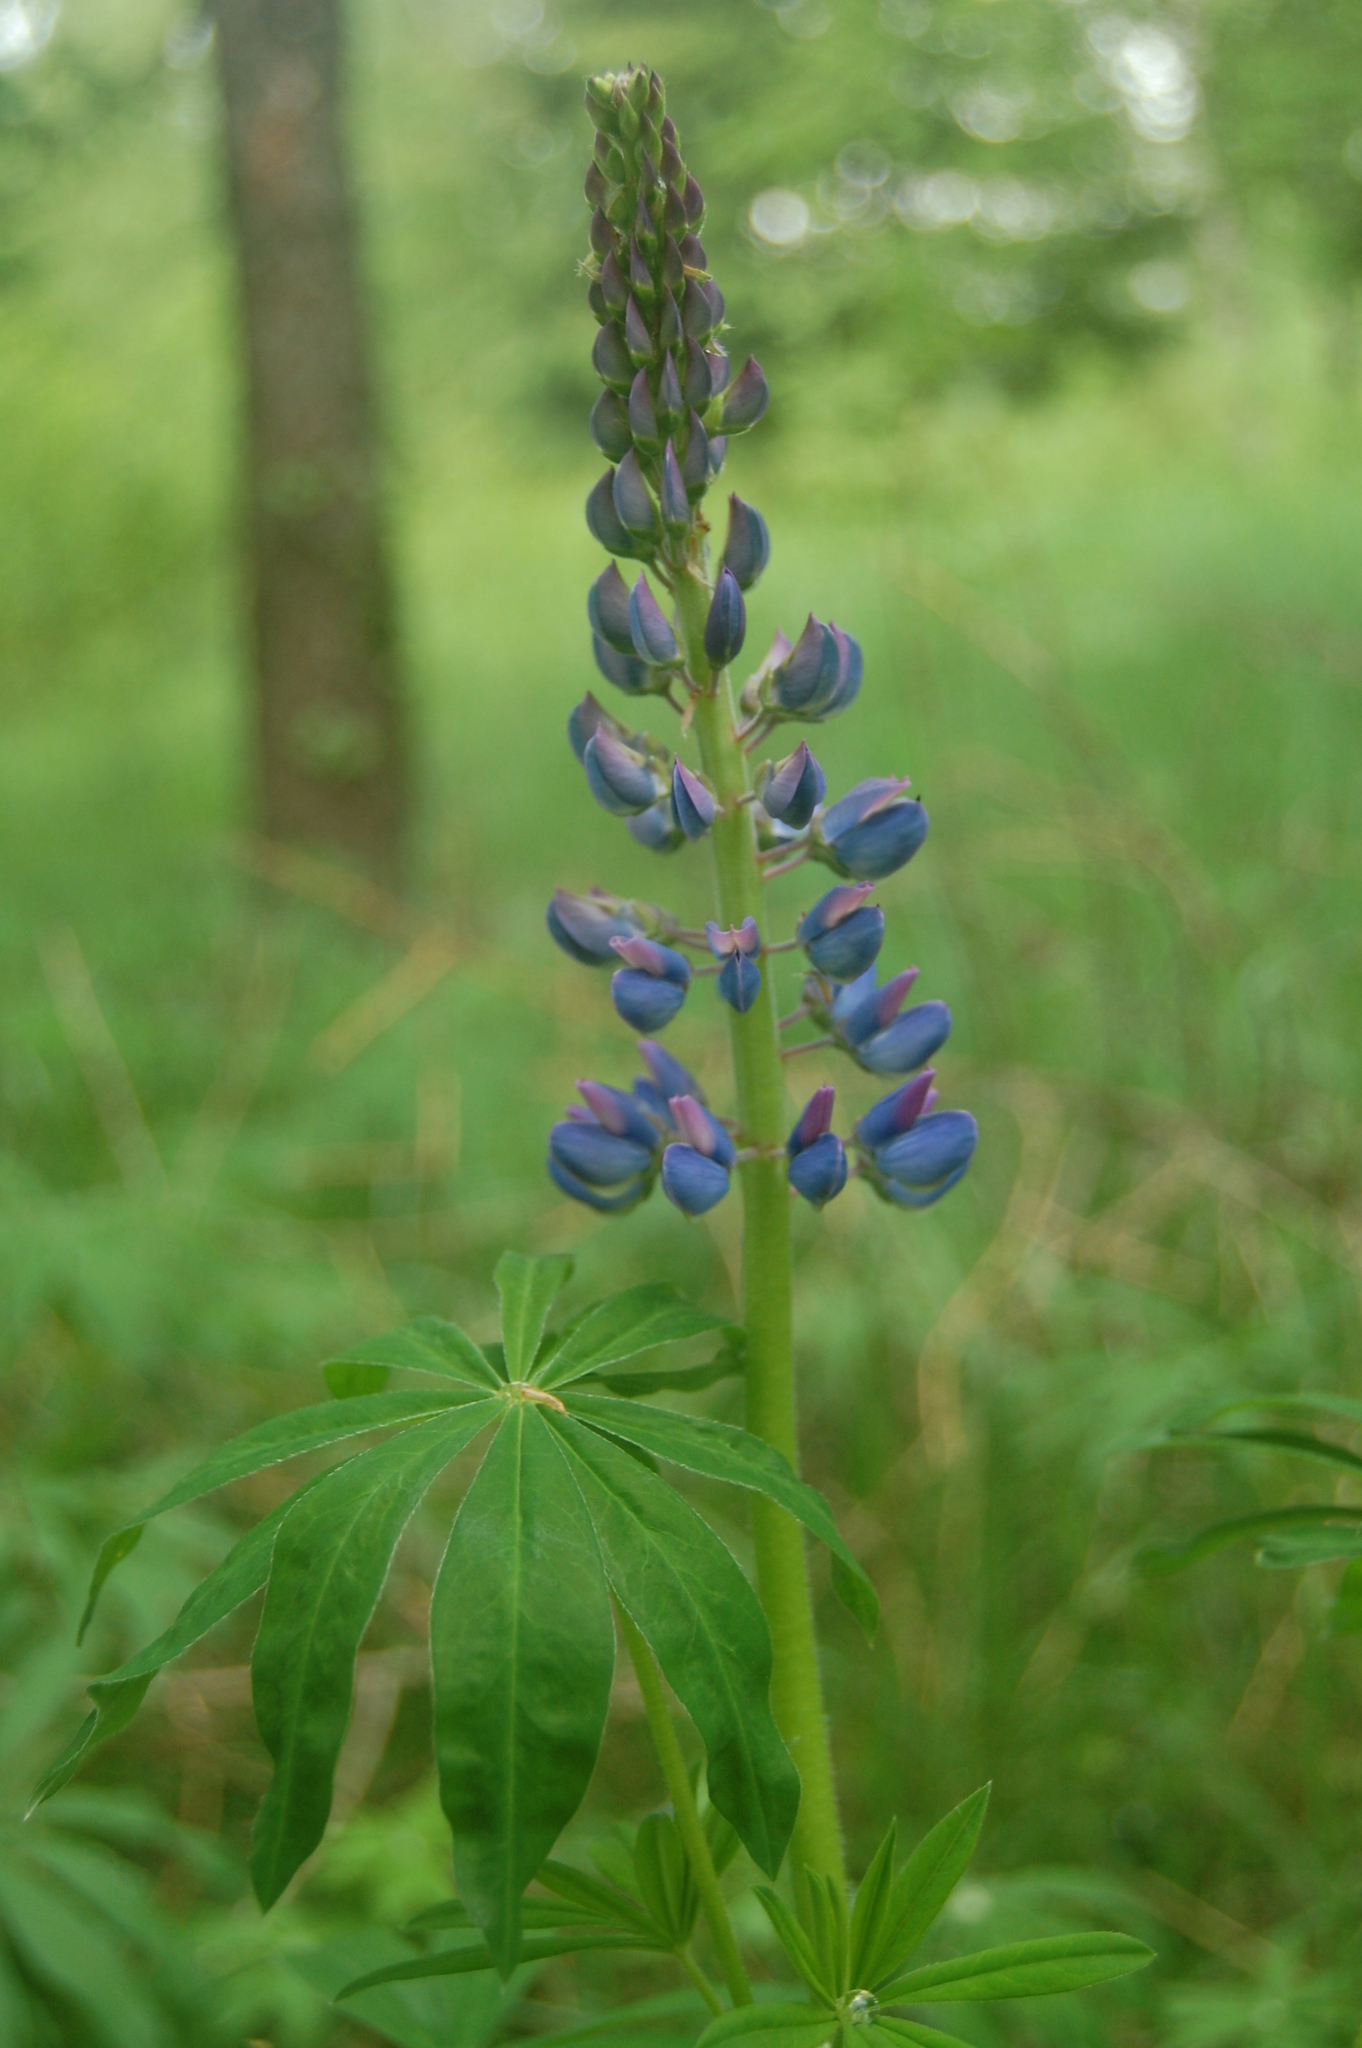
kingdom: Plantae
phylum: Tracheophyta
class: Magnoliopsida
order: Fabales
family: Fabaceae
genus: Lupinus
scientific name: Lupinus polyphyllus
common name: Garden lupin
